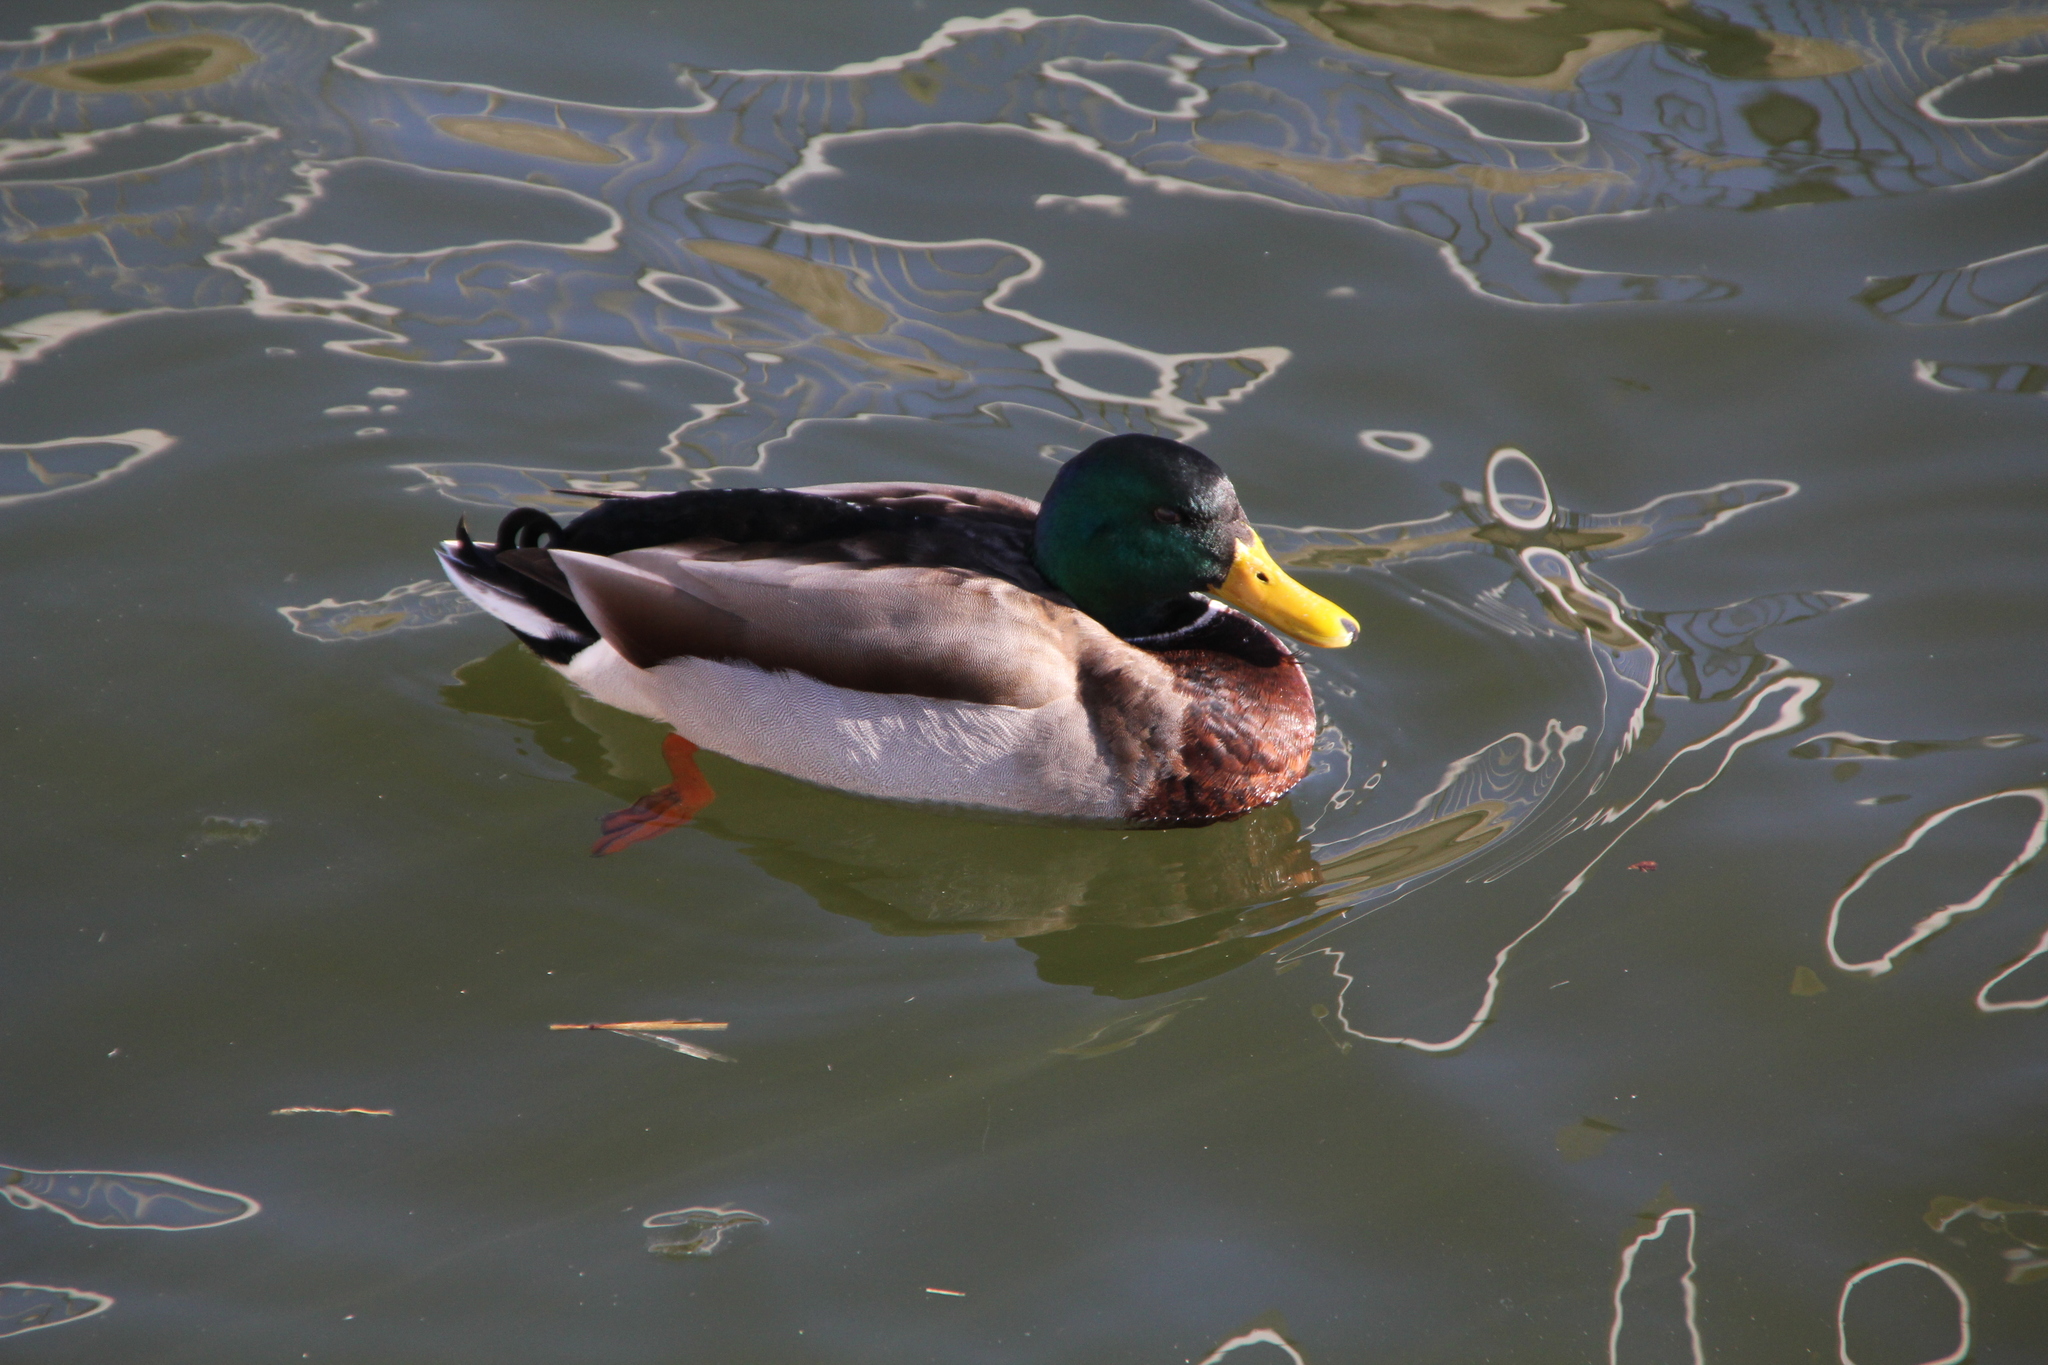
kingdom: Animalia
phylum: Chordata
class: Aves
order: Anseriformes
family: Anatidae
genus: Anas
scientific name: Anas platyrhynchos
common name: Mallard
